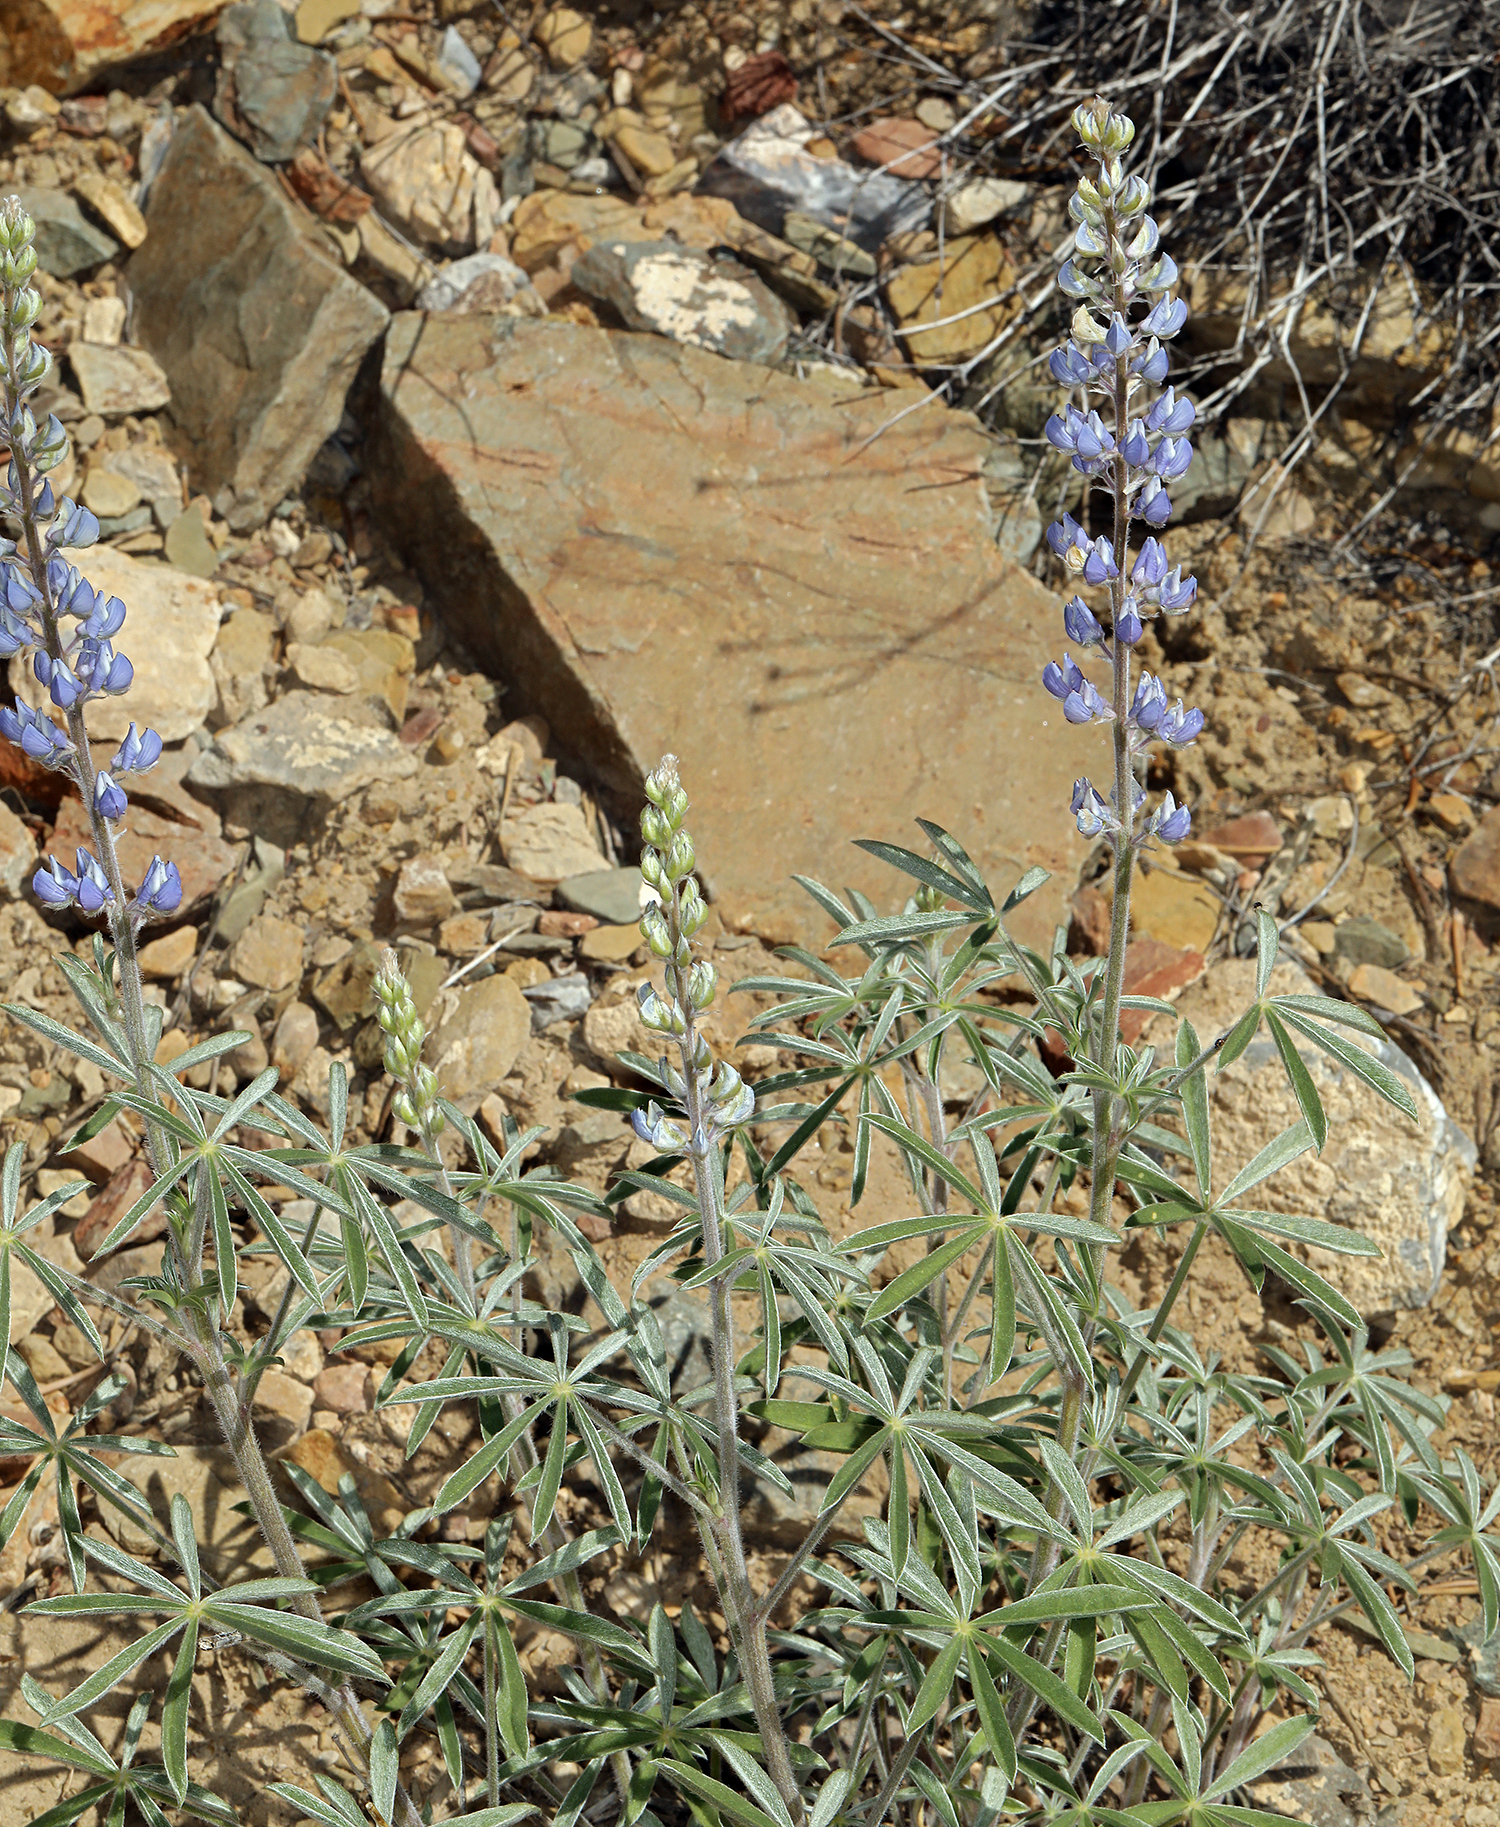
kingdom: Plantae
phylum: Tracheophyta
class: Magnoliopsida
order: Fabales
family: Fabaceae
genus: Lupinus
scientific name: Lupinus argenteus
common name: Silvery lupine
